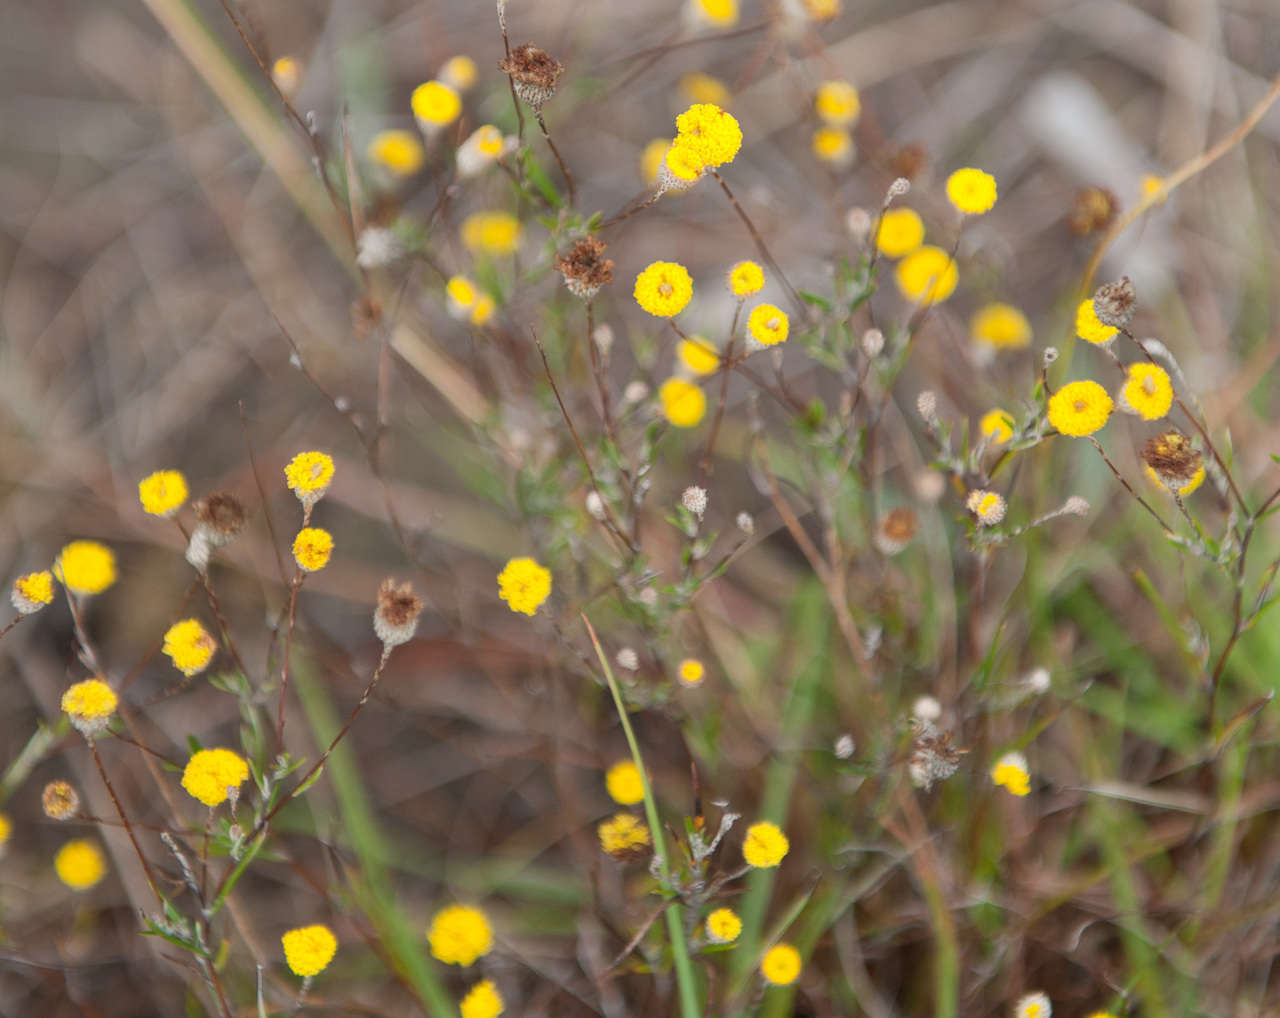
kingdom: Plantae
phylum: Tracheophyta
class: Magnoliopsida
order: Asterales
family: Asteraceae
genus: Leptorhynchos
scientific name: Leptorhynchos tenuifolius
